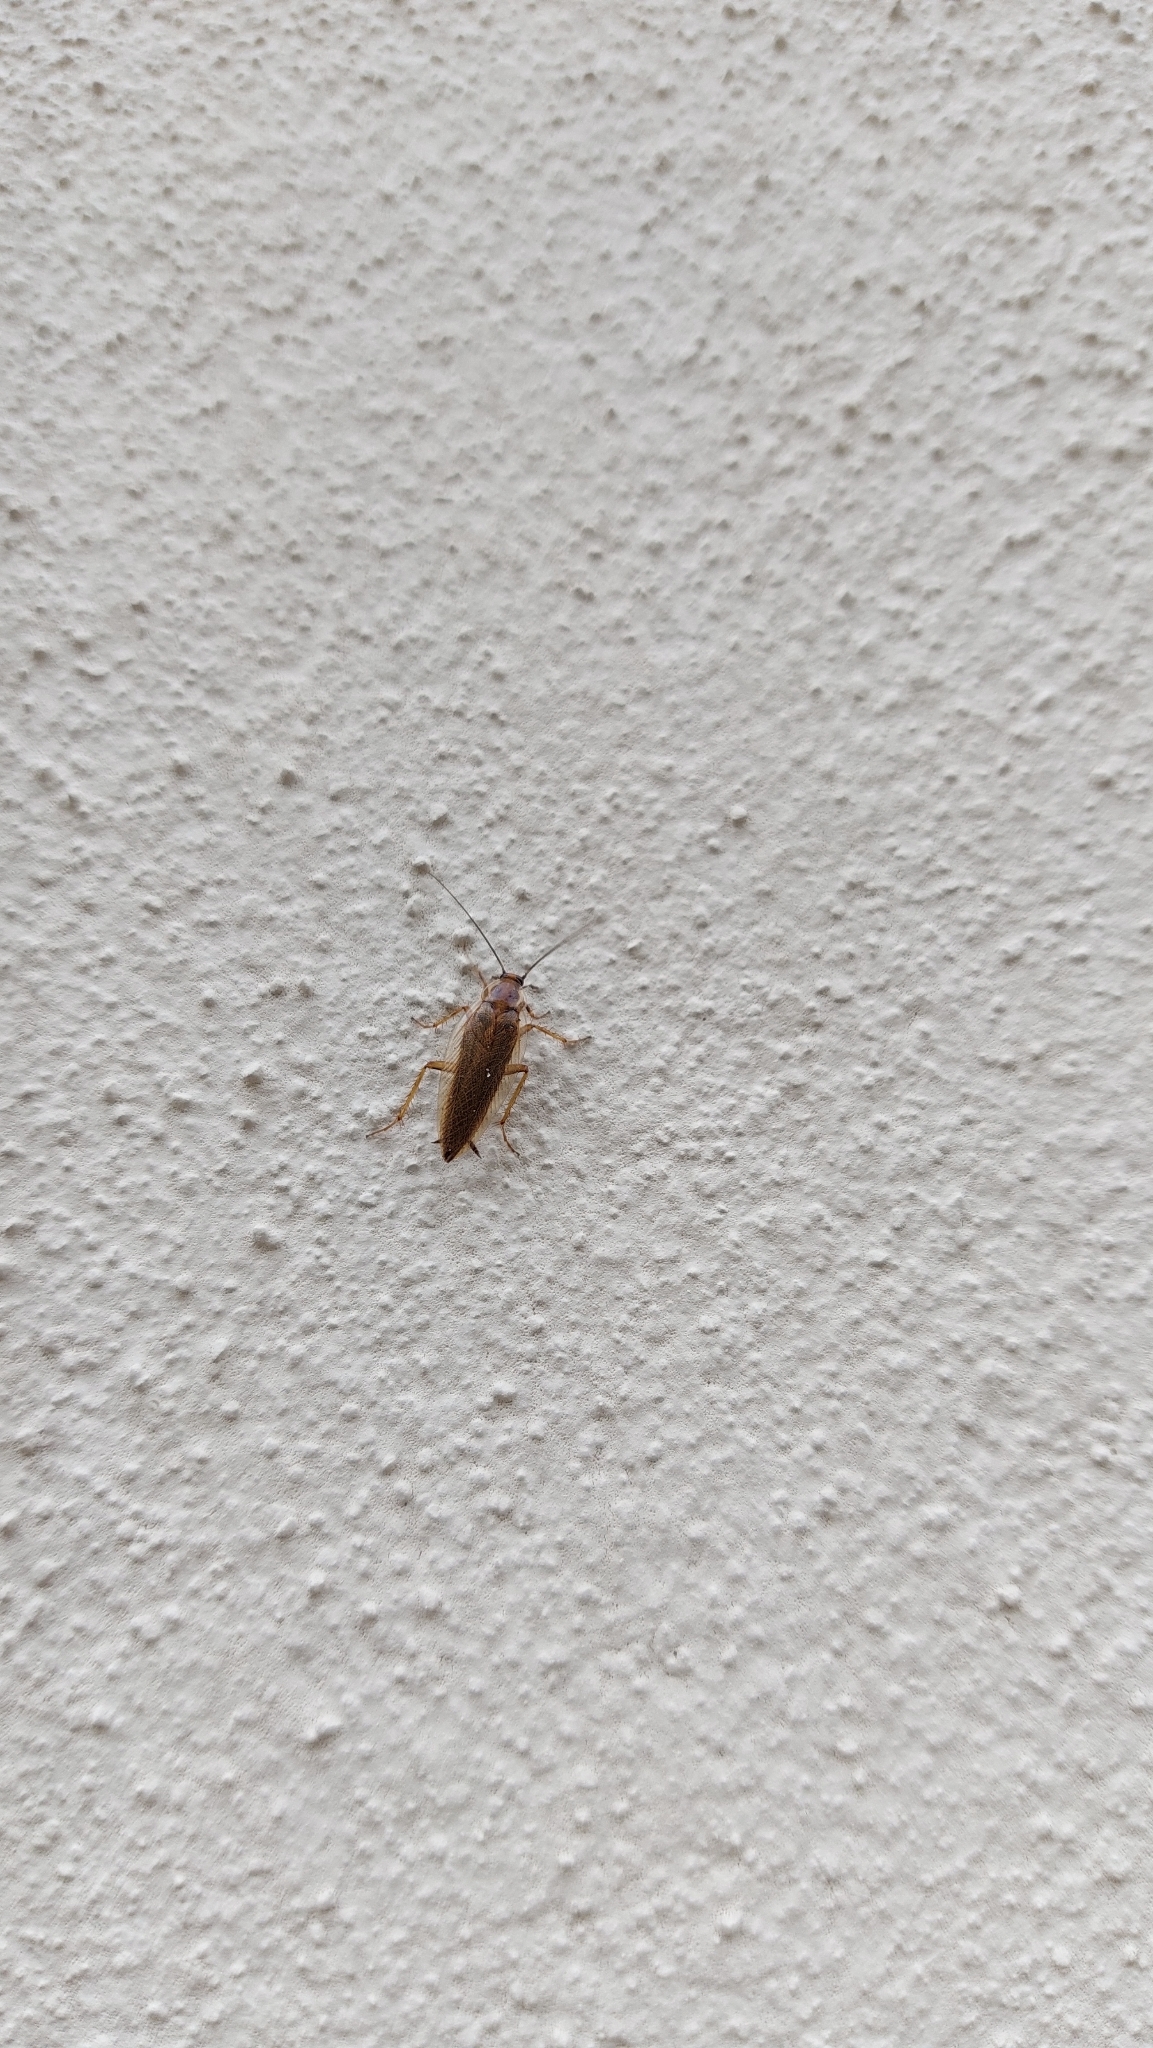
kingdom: Animalia
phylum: Arthropoda
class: Insecta
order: Blattodea
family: Ectobiidae
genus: Ectobius
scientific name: Ectobius vittiventris
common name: Garden cockroach
